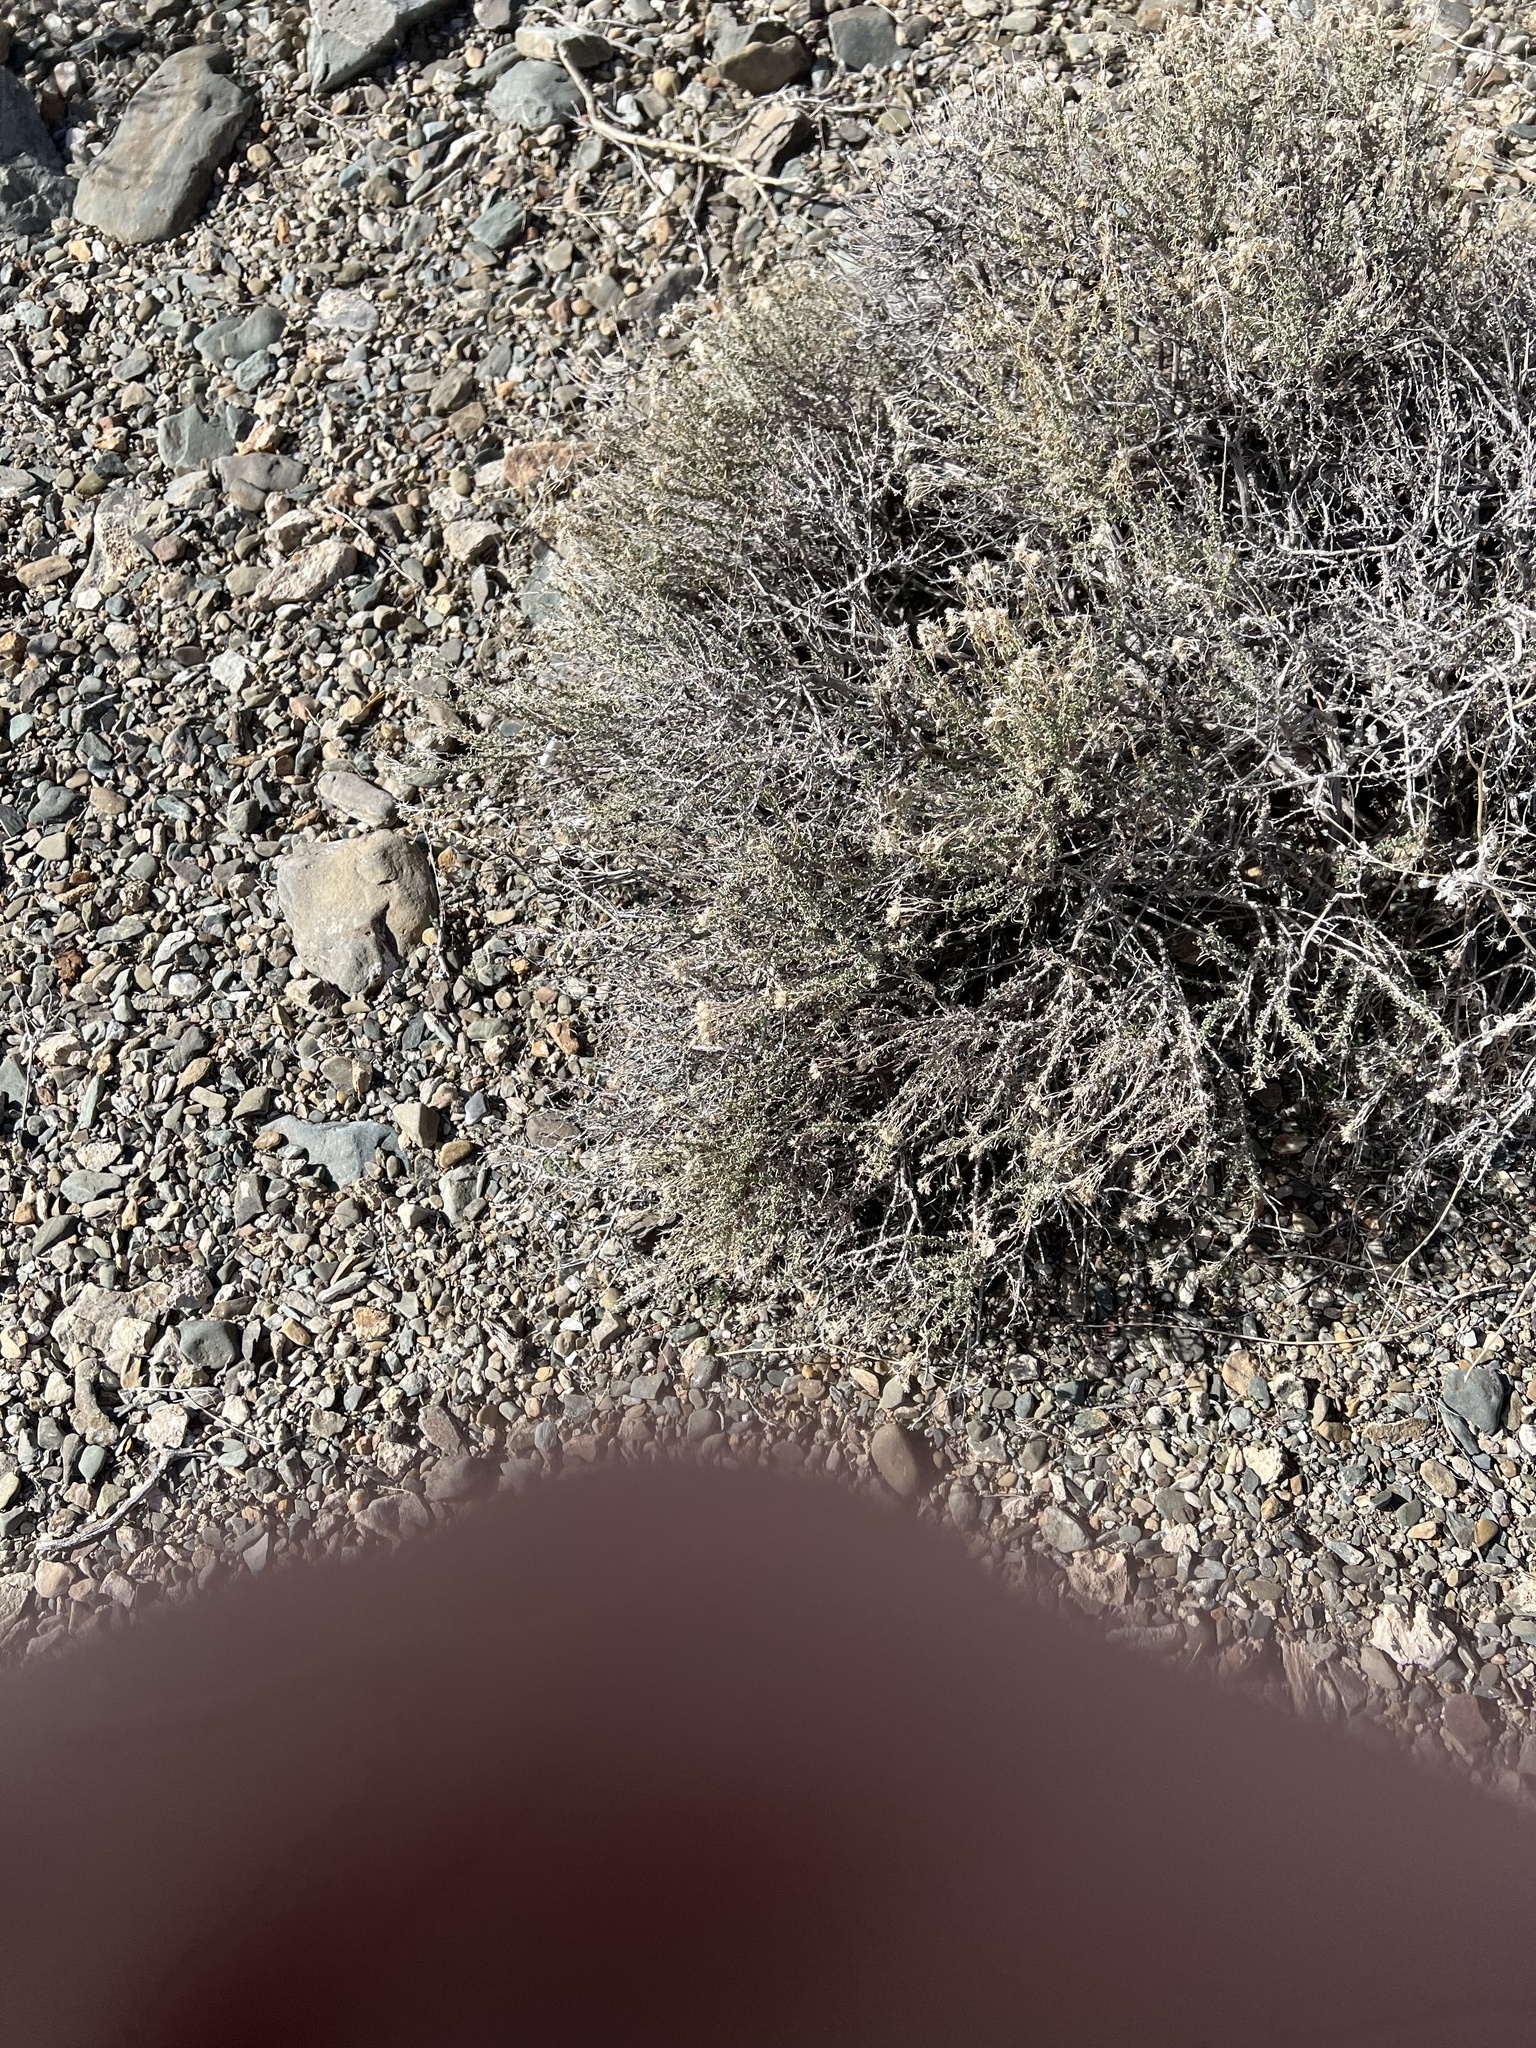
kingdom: Plantae
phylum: Tracheophyta
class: Magnoliopsida
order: Asterales
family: Asteraceae
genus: Ericameria
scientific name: Ericameria cooperi
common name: Cooper's goldenbush
